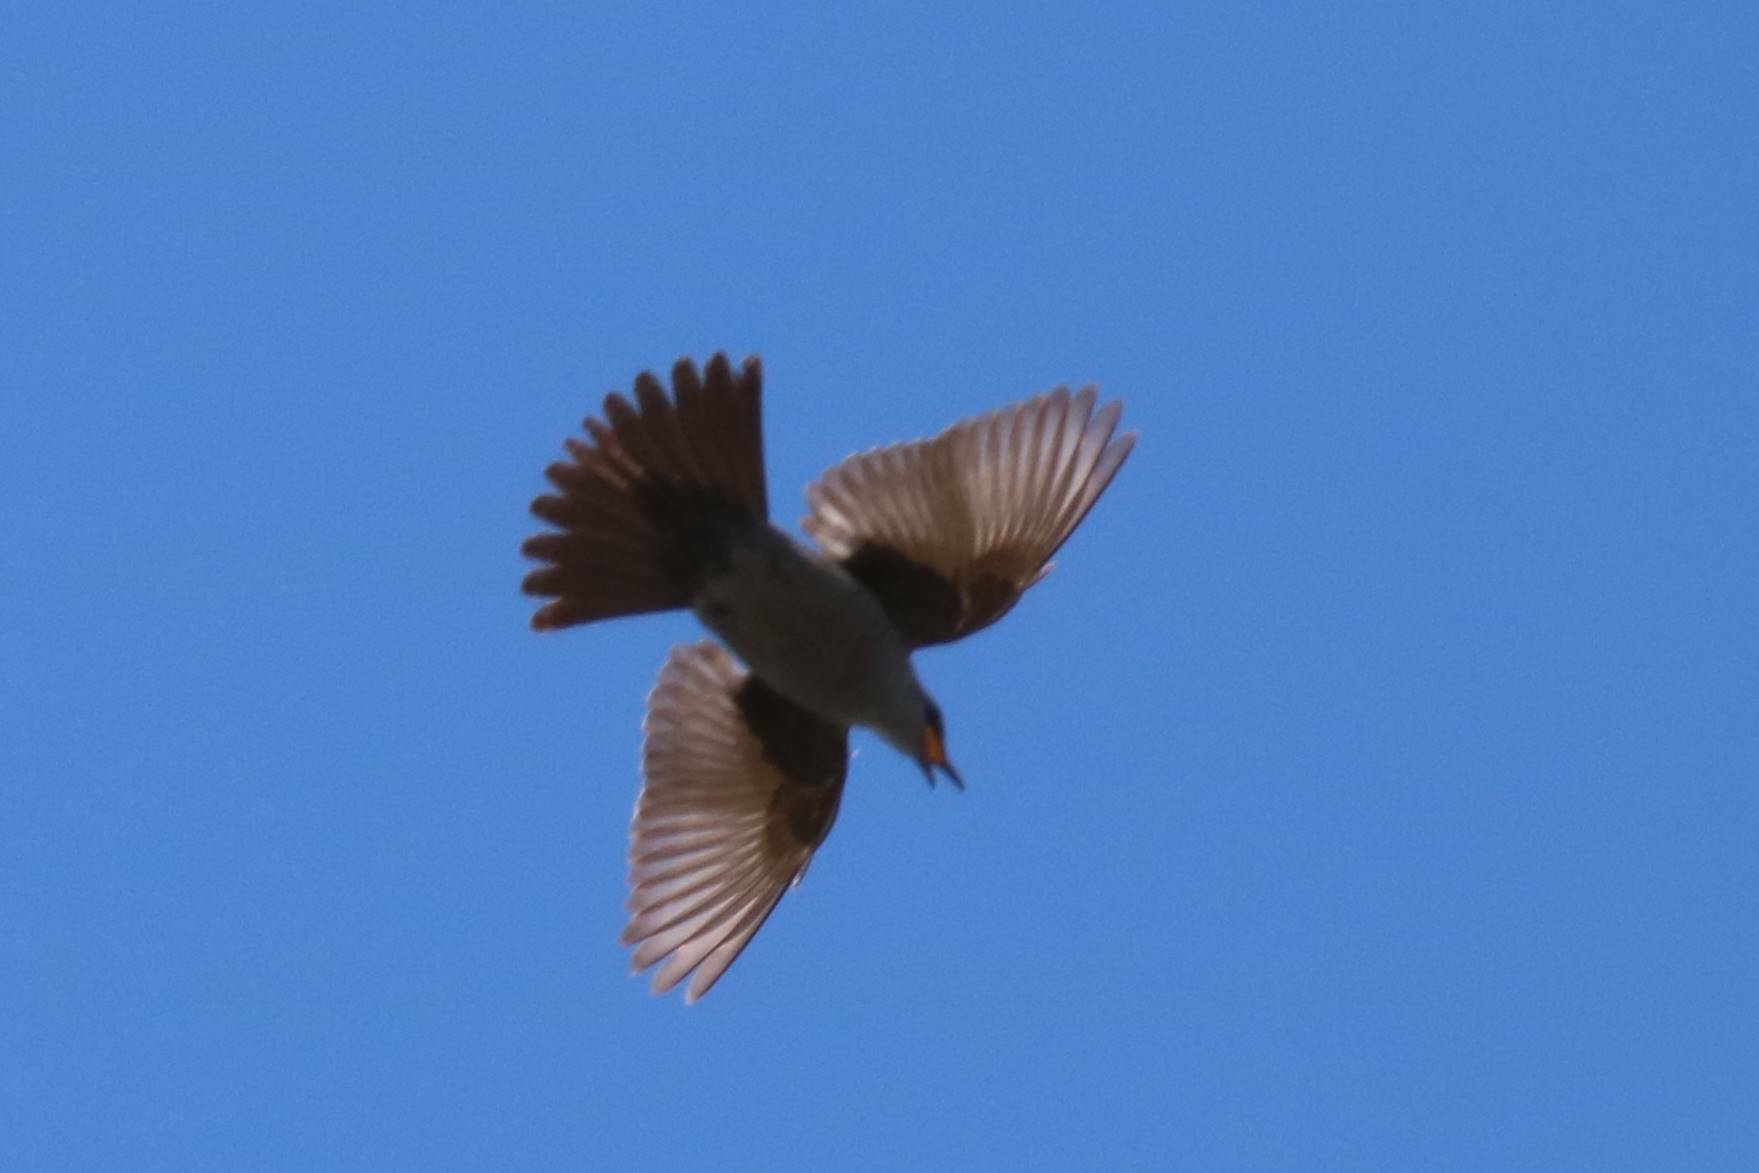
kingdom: Animalia
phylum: Chordata
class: Aves
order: Passeriformes
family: Muscicapidae
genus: Monticola
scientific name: Monticola solitarius
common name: Blue rock thrush
